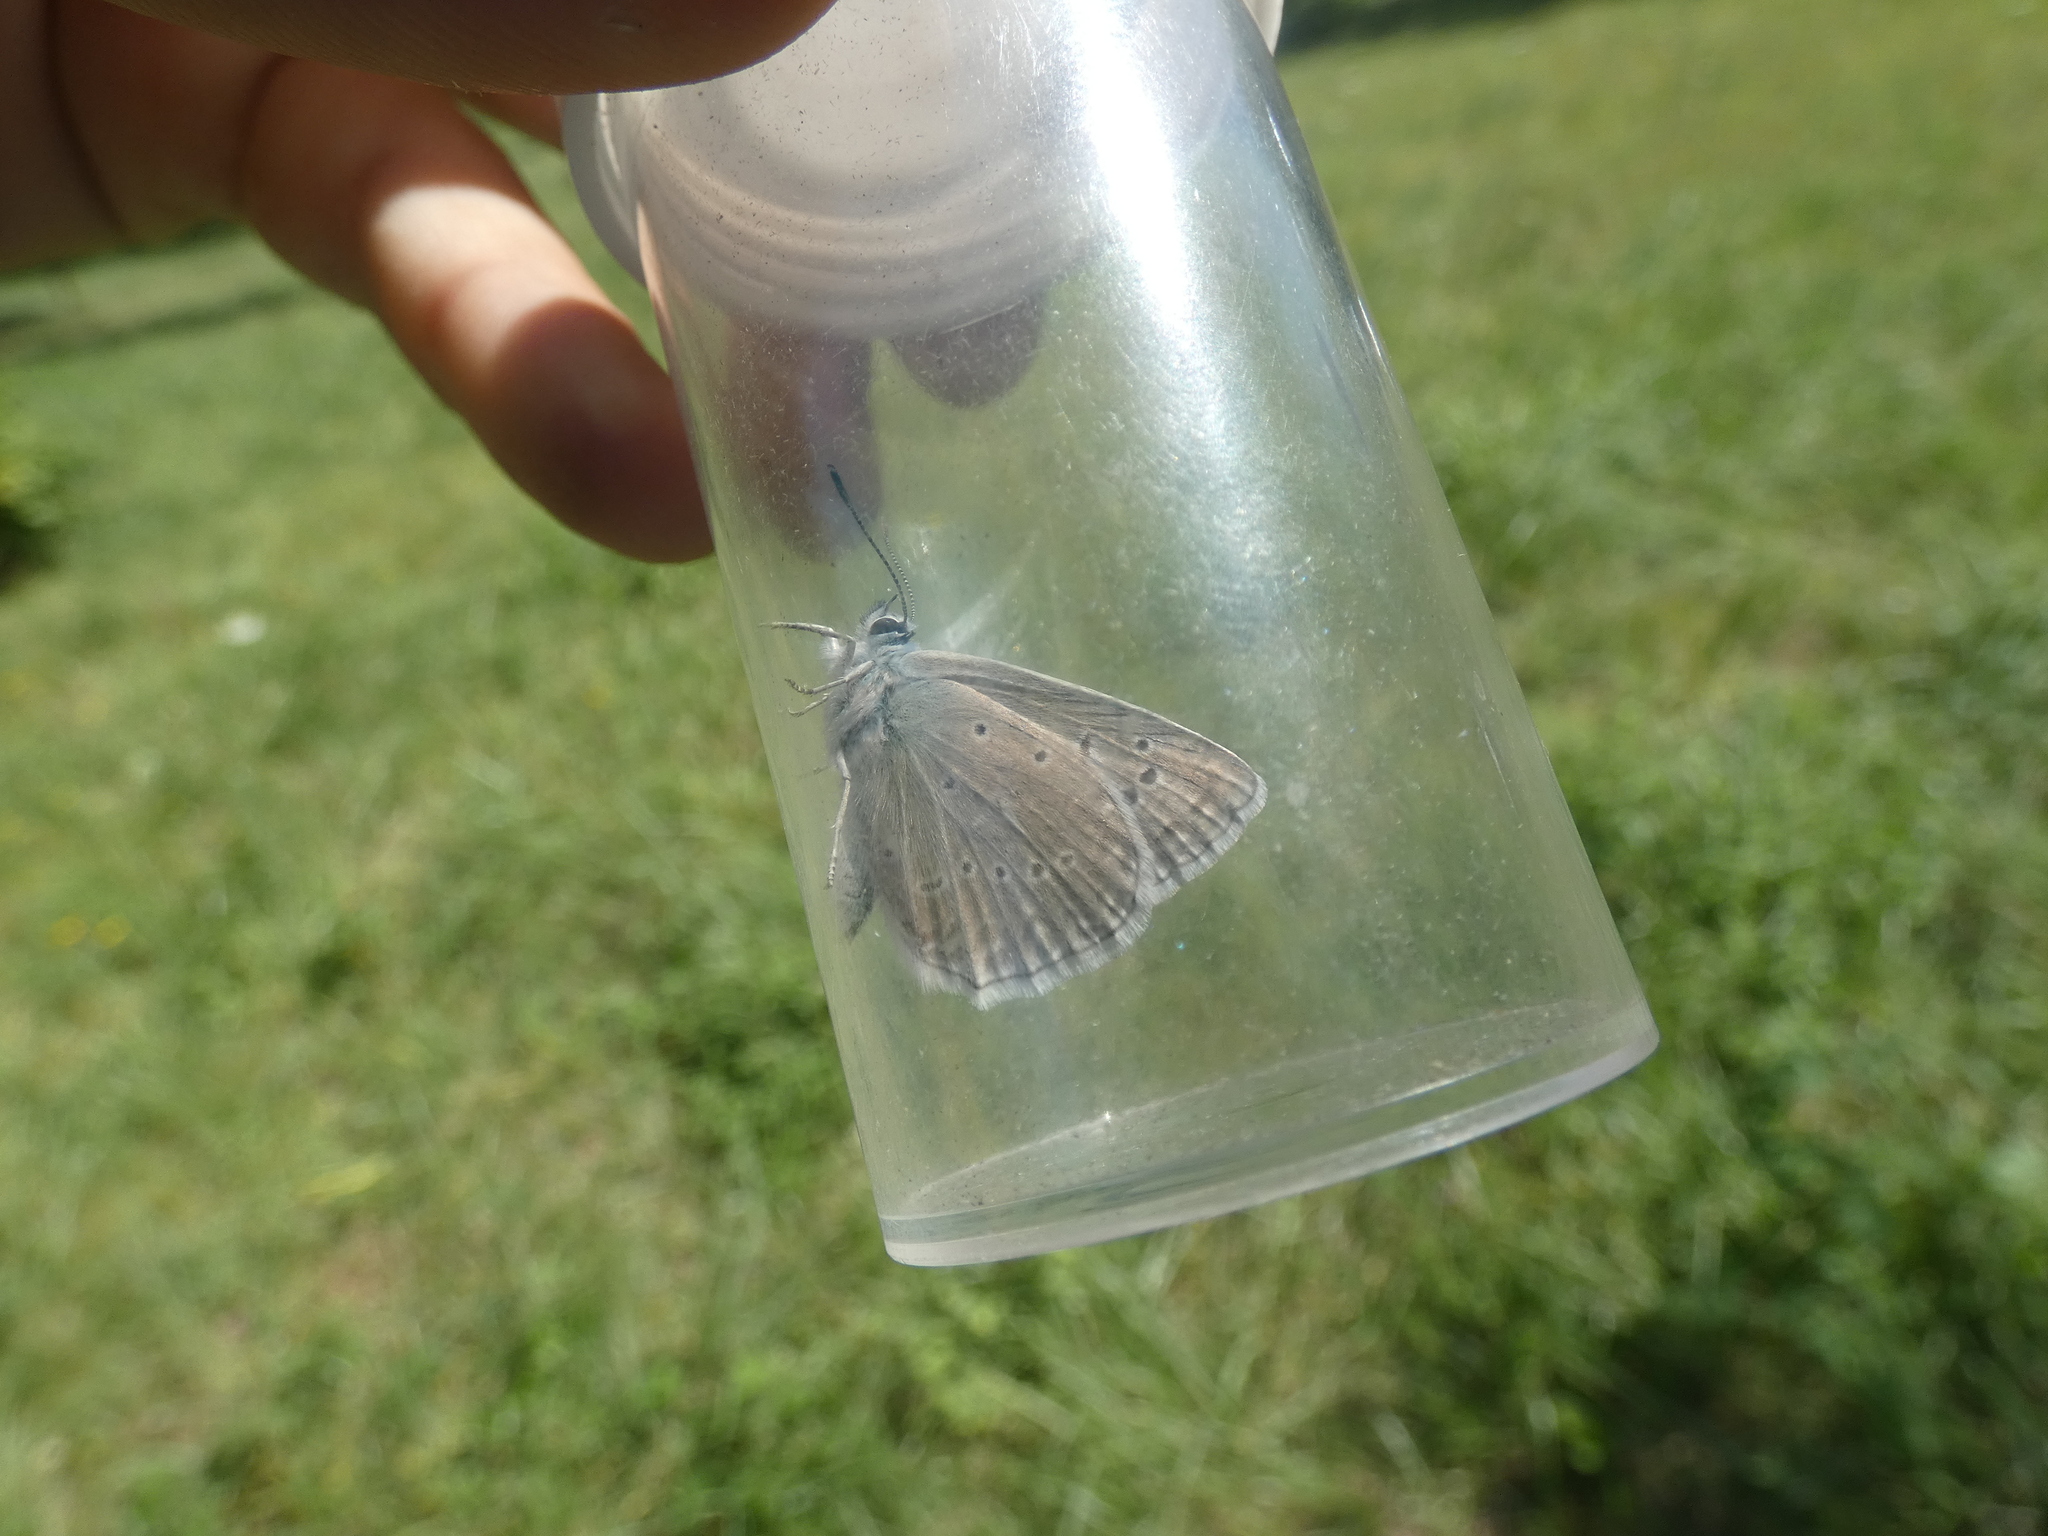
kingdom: Animalia
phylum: Arthropoda
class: Insecta
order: Lepidoptera
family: Lycaenidae
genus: Polyommatus
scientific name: Polyommatus daphnis
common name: Meleager's blue
